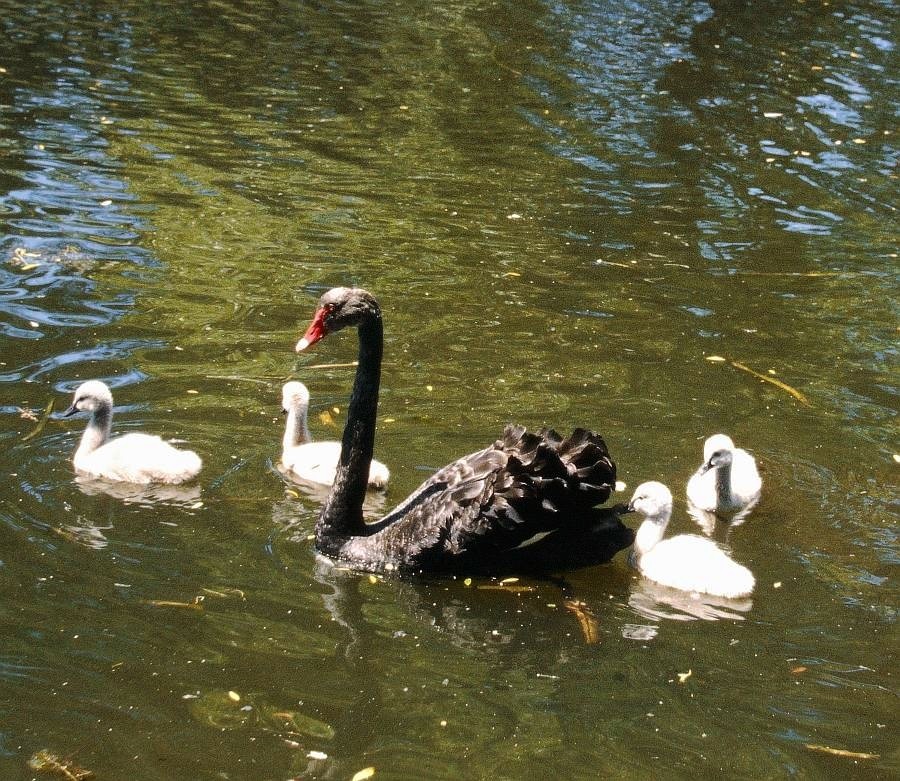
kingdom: Animalia
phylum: Chordata
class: Aves
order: Anseriformes
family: Anatidae
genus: Cygnus
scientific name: Cygnus atratus
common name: Black swan
